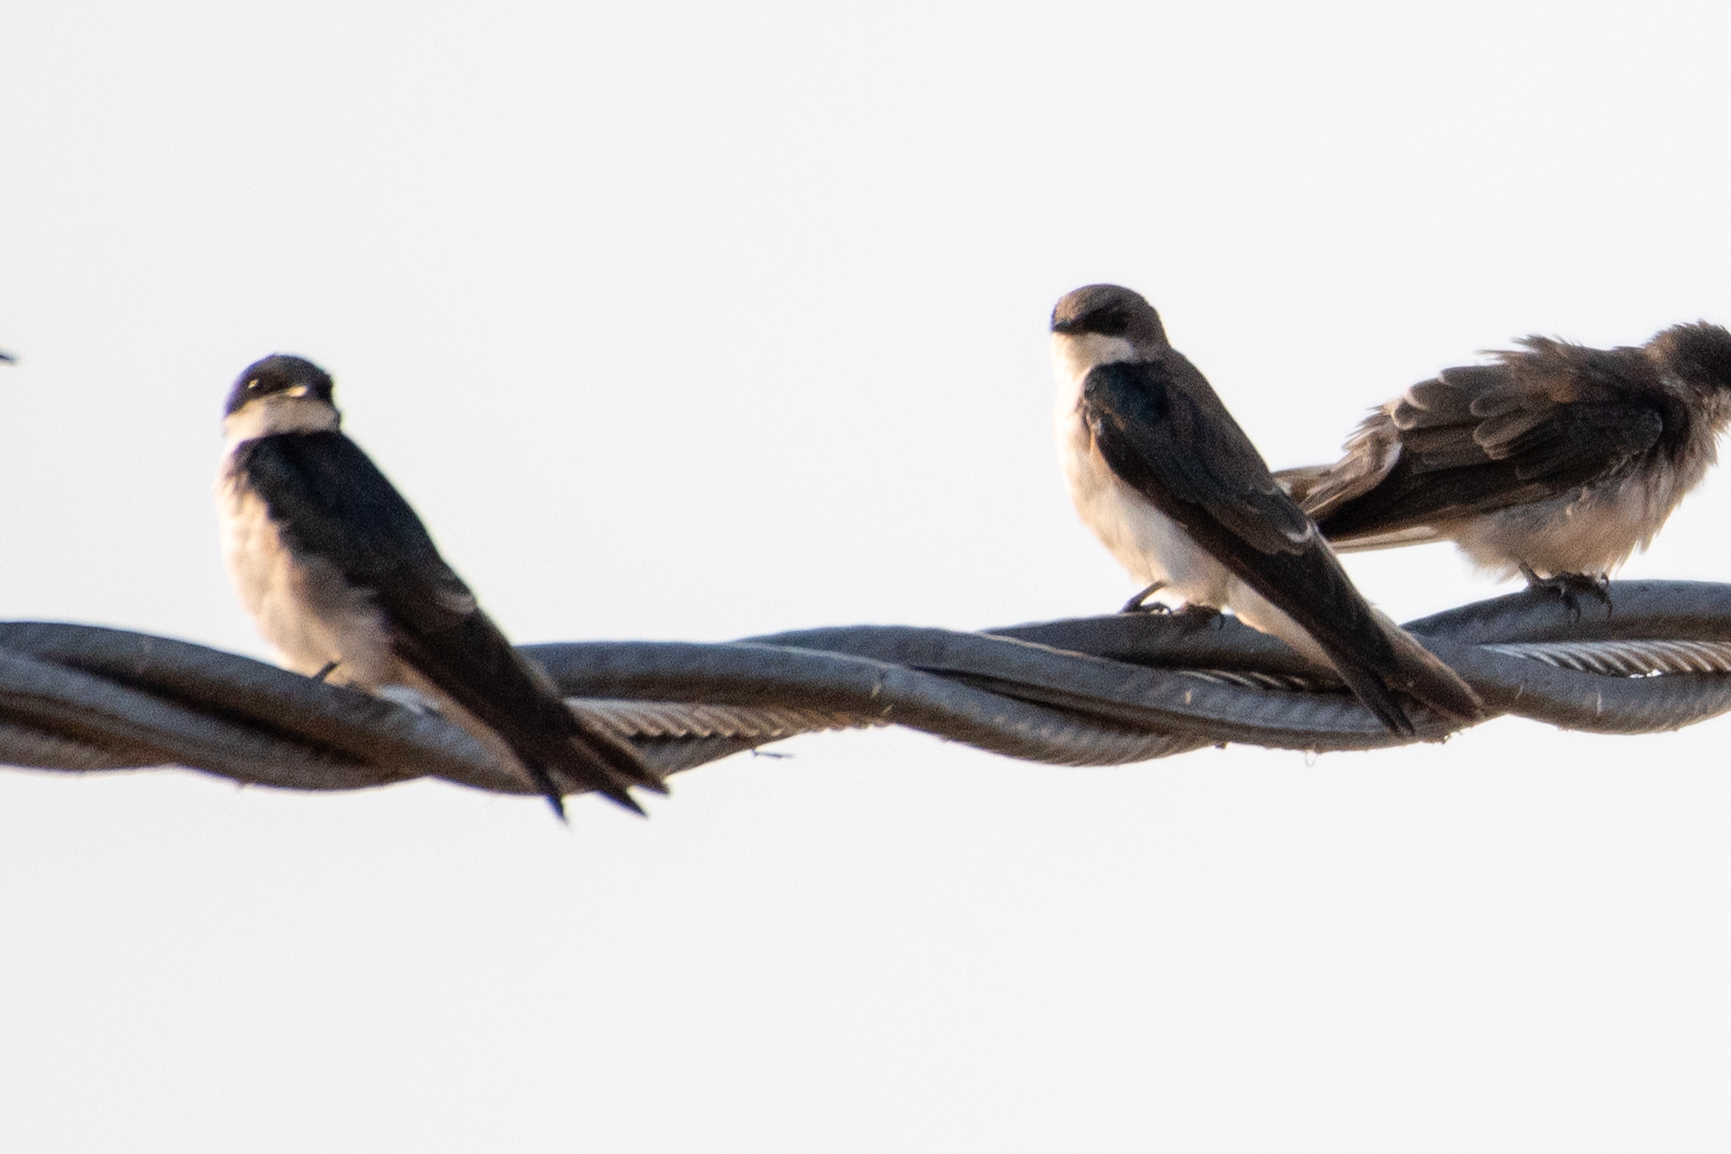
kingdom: Animalia
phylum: Chordata
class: Aves
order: Passeriformes
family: Hirundinidae
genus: Tachycineta
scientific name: Tachycineta bicolor
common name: Tree swallow
